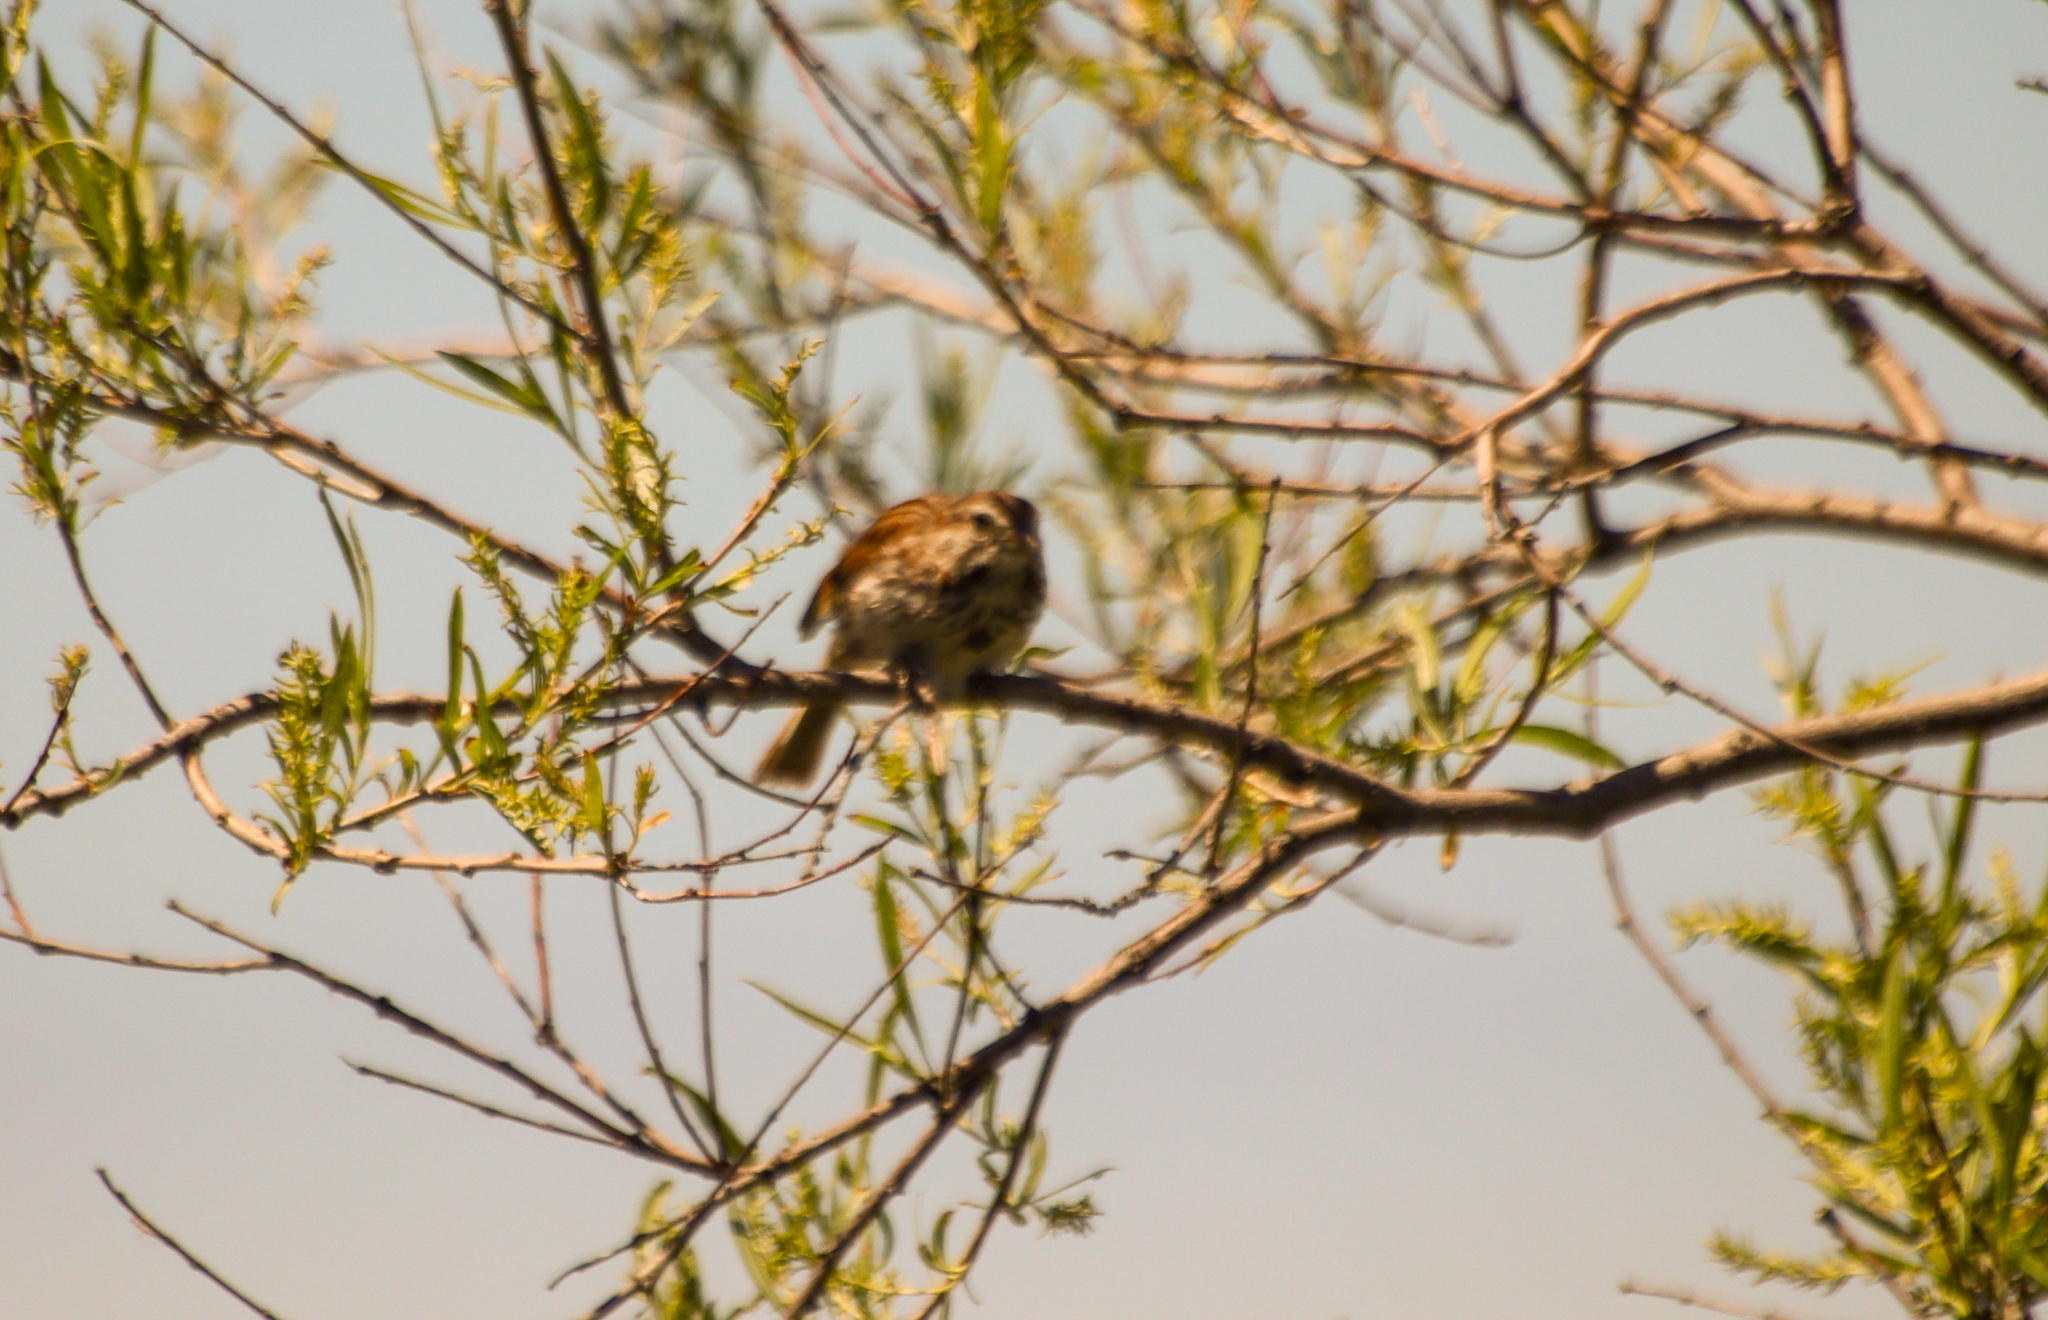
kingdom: Animalia
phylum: Chordata
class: Aves
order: Passeriformes
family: Passerellidae
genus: Melospiza
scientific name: Melospiza melodia
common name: Song sparrow
